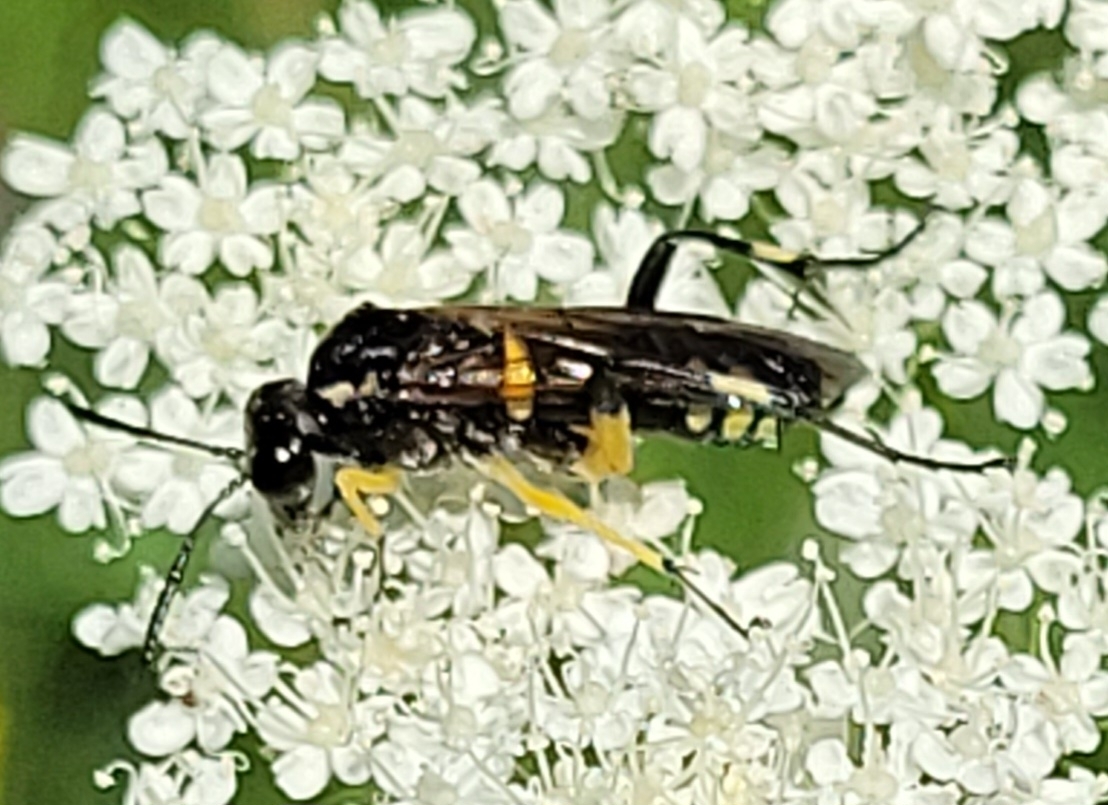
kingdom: Animalia
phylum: Arthropoda
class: Insecta
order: Hymenoptera
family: Tenthredinidae
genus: Macrophya
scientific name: Macrophya montana
